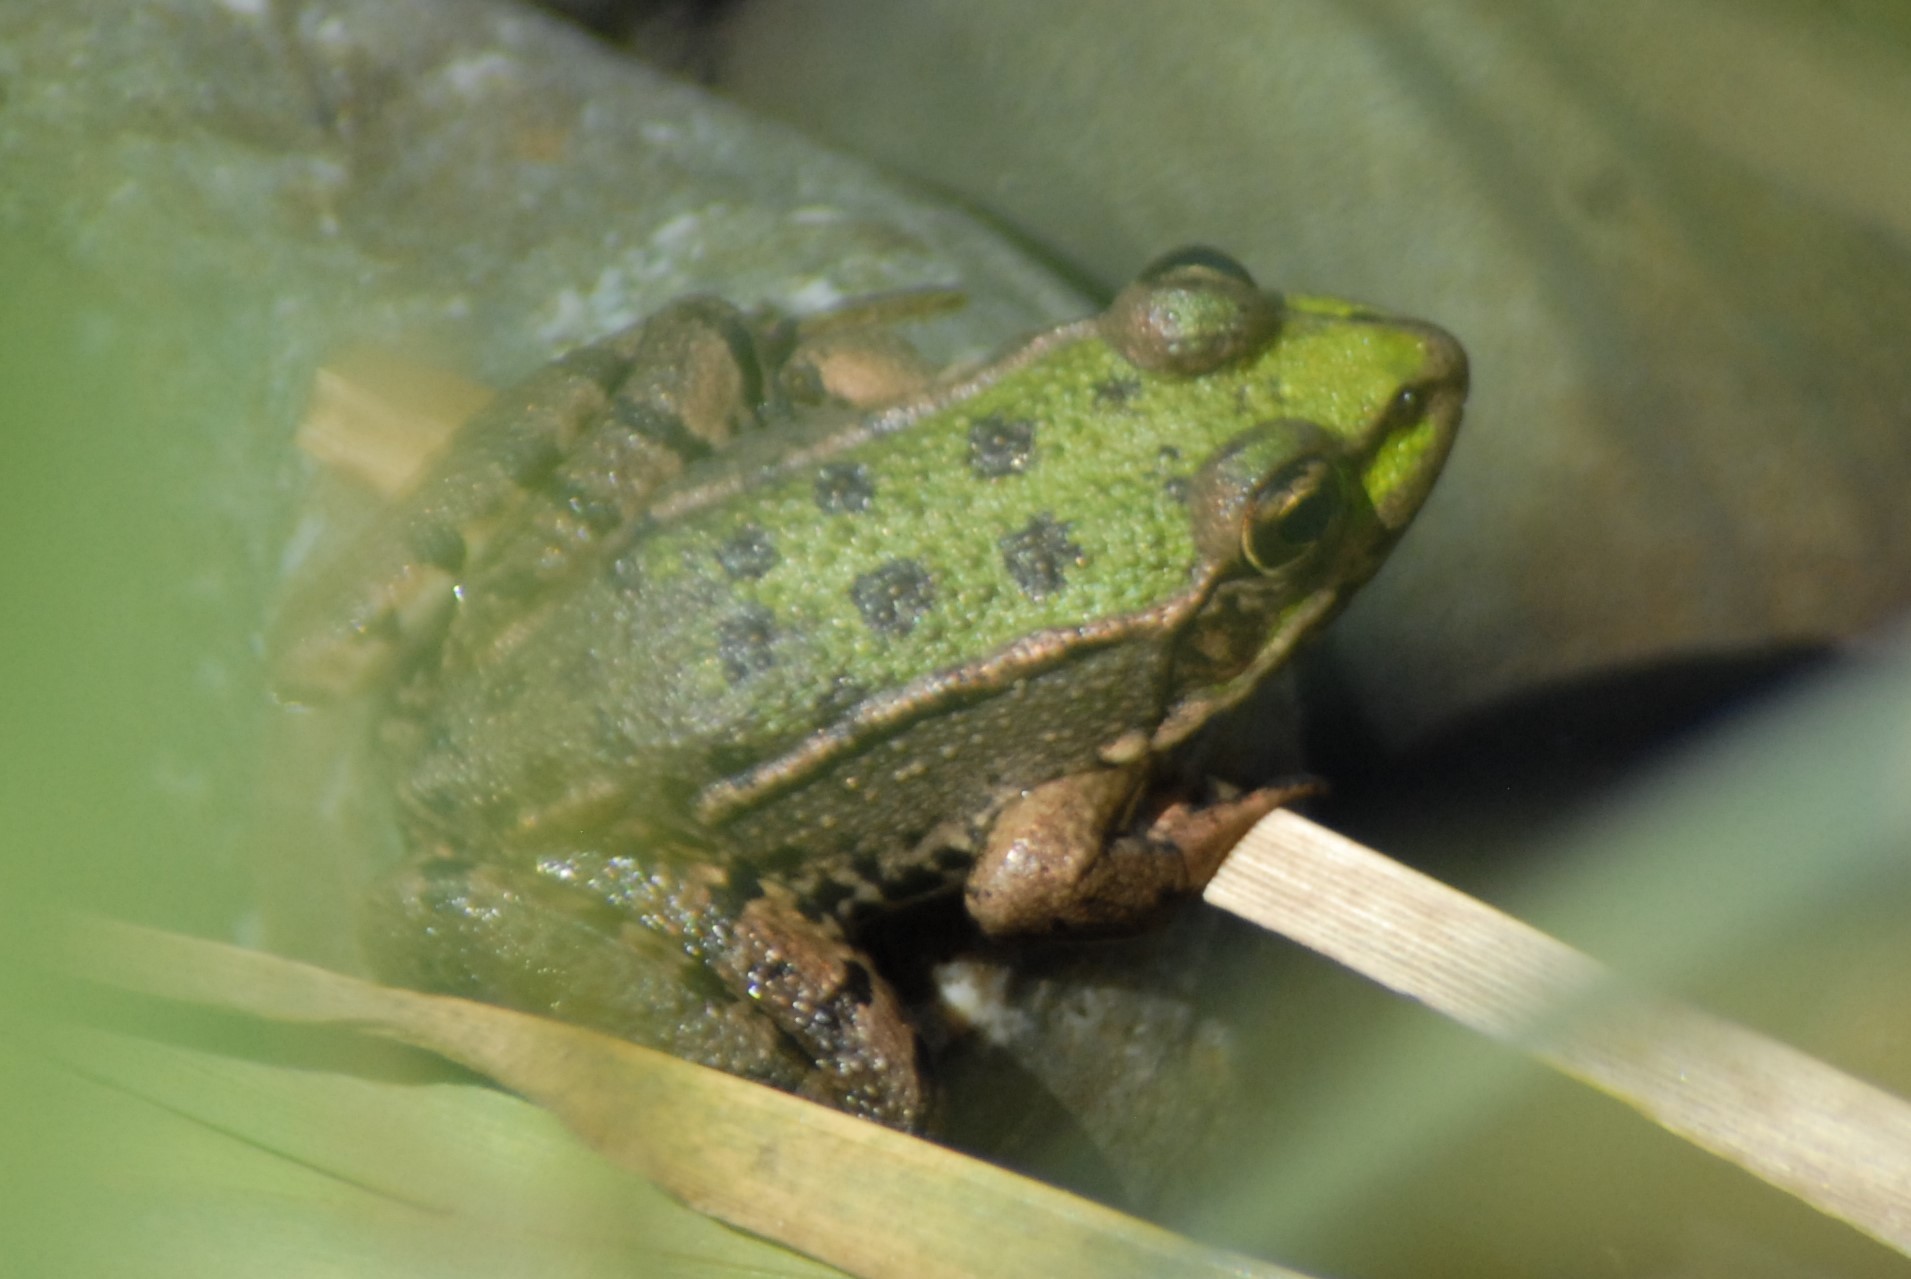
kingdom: Animalia
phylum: Chordata
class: Amphibia
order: Anura
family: Ranidae
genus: Pelophylax
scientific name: Pelophylax ridibundus
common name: Marsh frog
